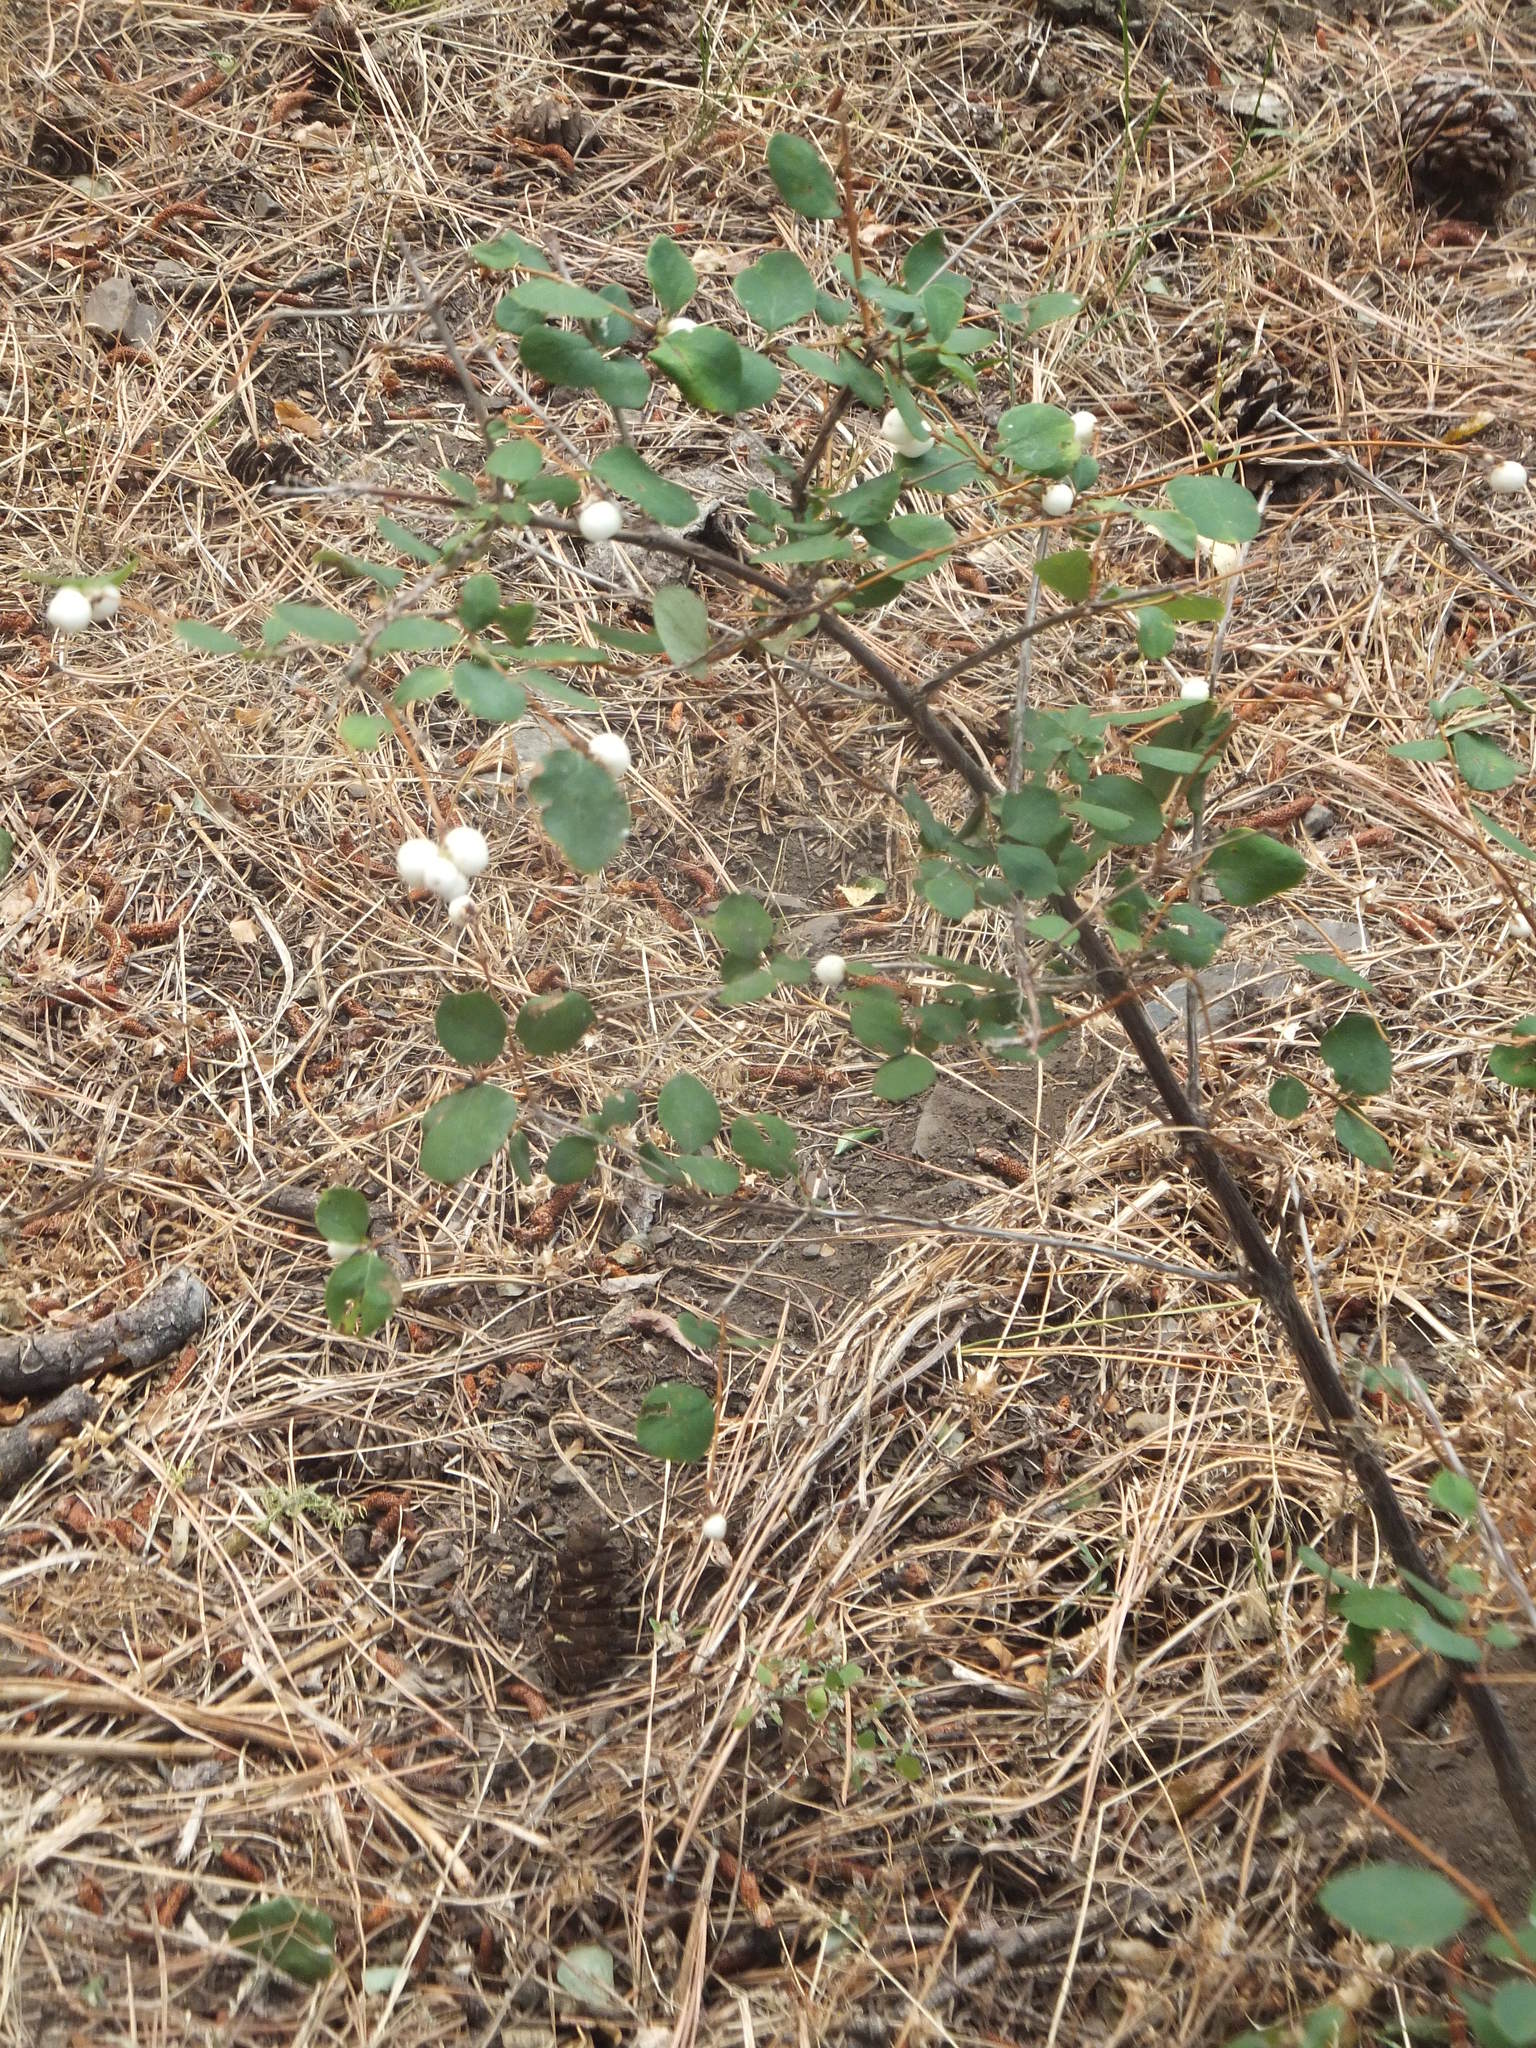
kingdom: Plantae
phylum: Tracheophyta
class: Magnoliopsida
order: Dipsacales
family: Caprifoliaceae
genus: Symphoricarpos
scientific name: Symphoricarpos
